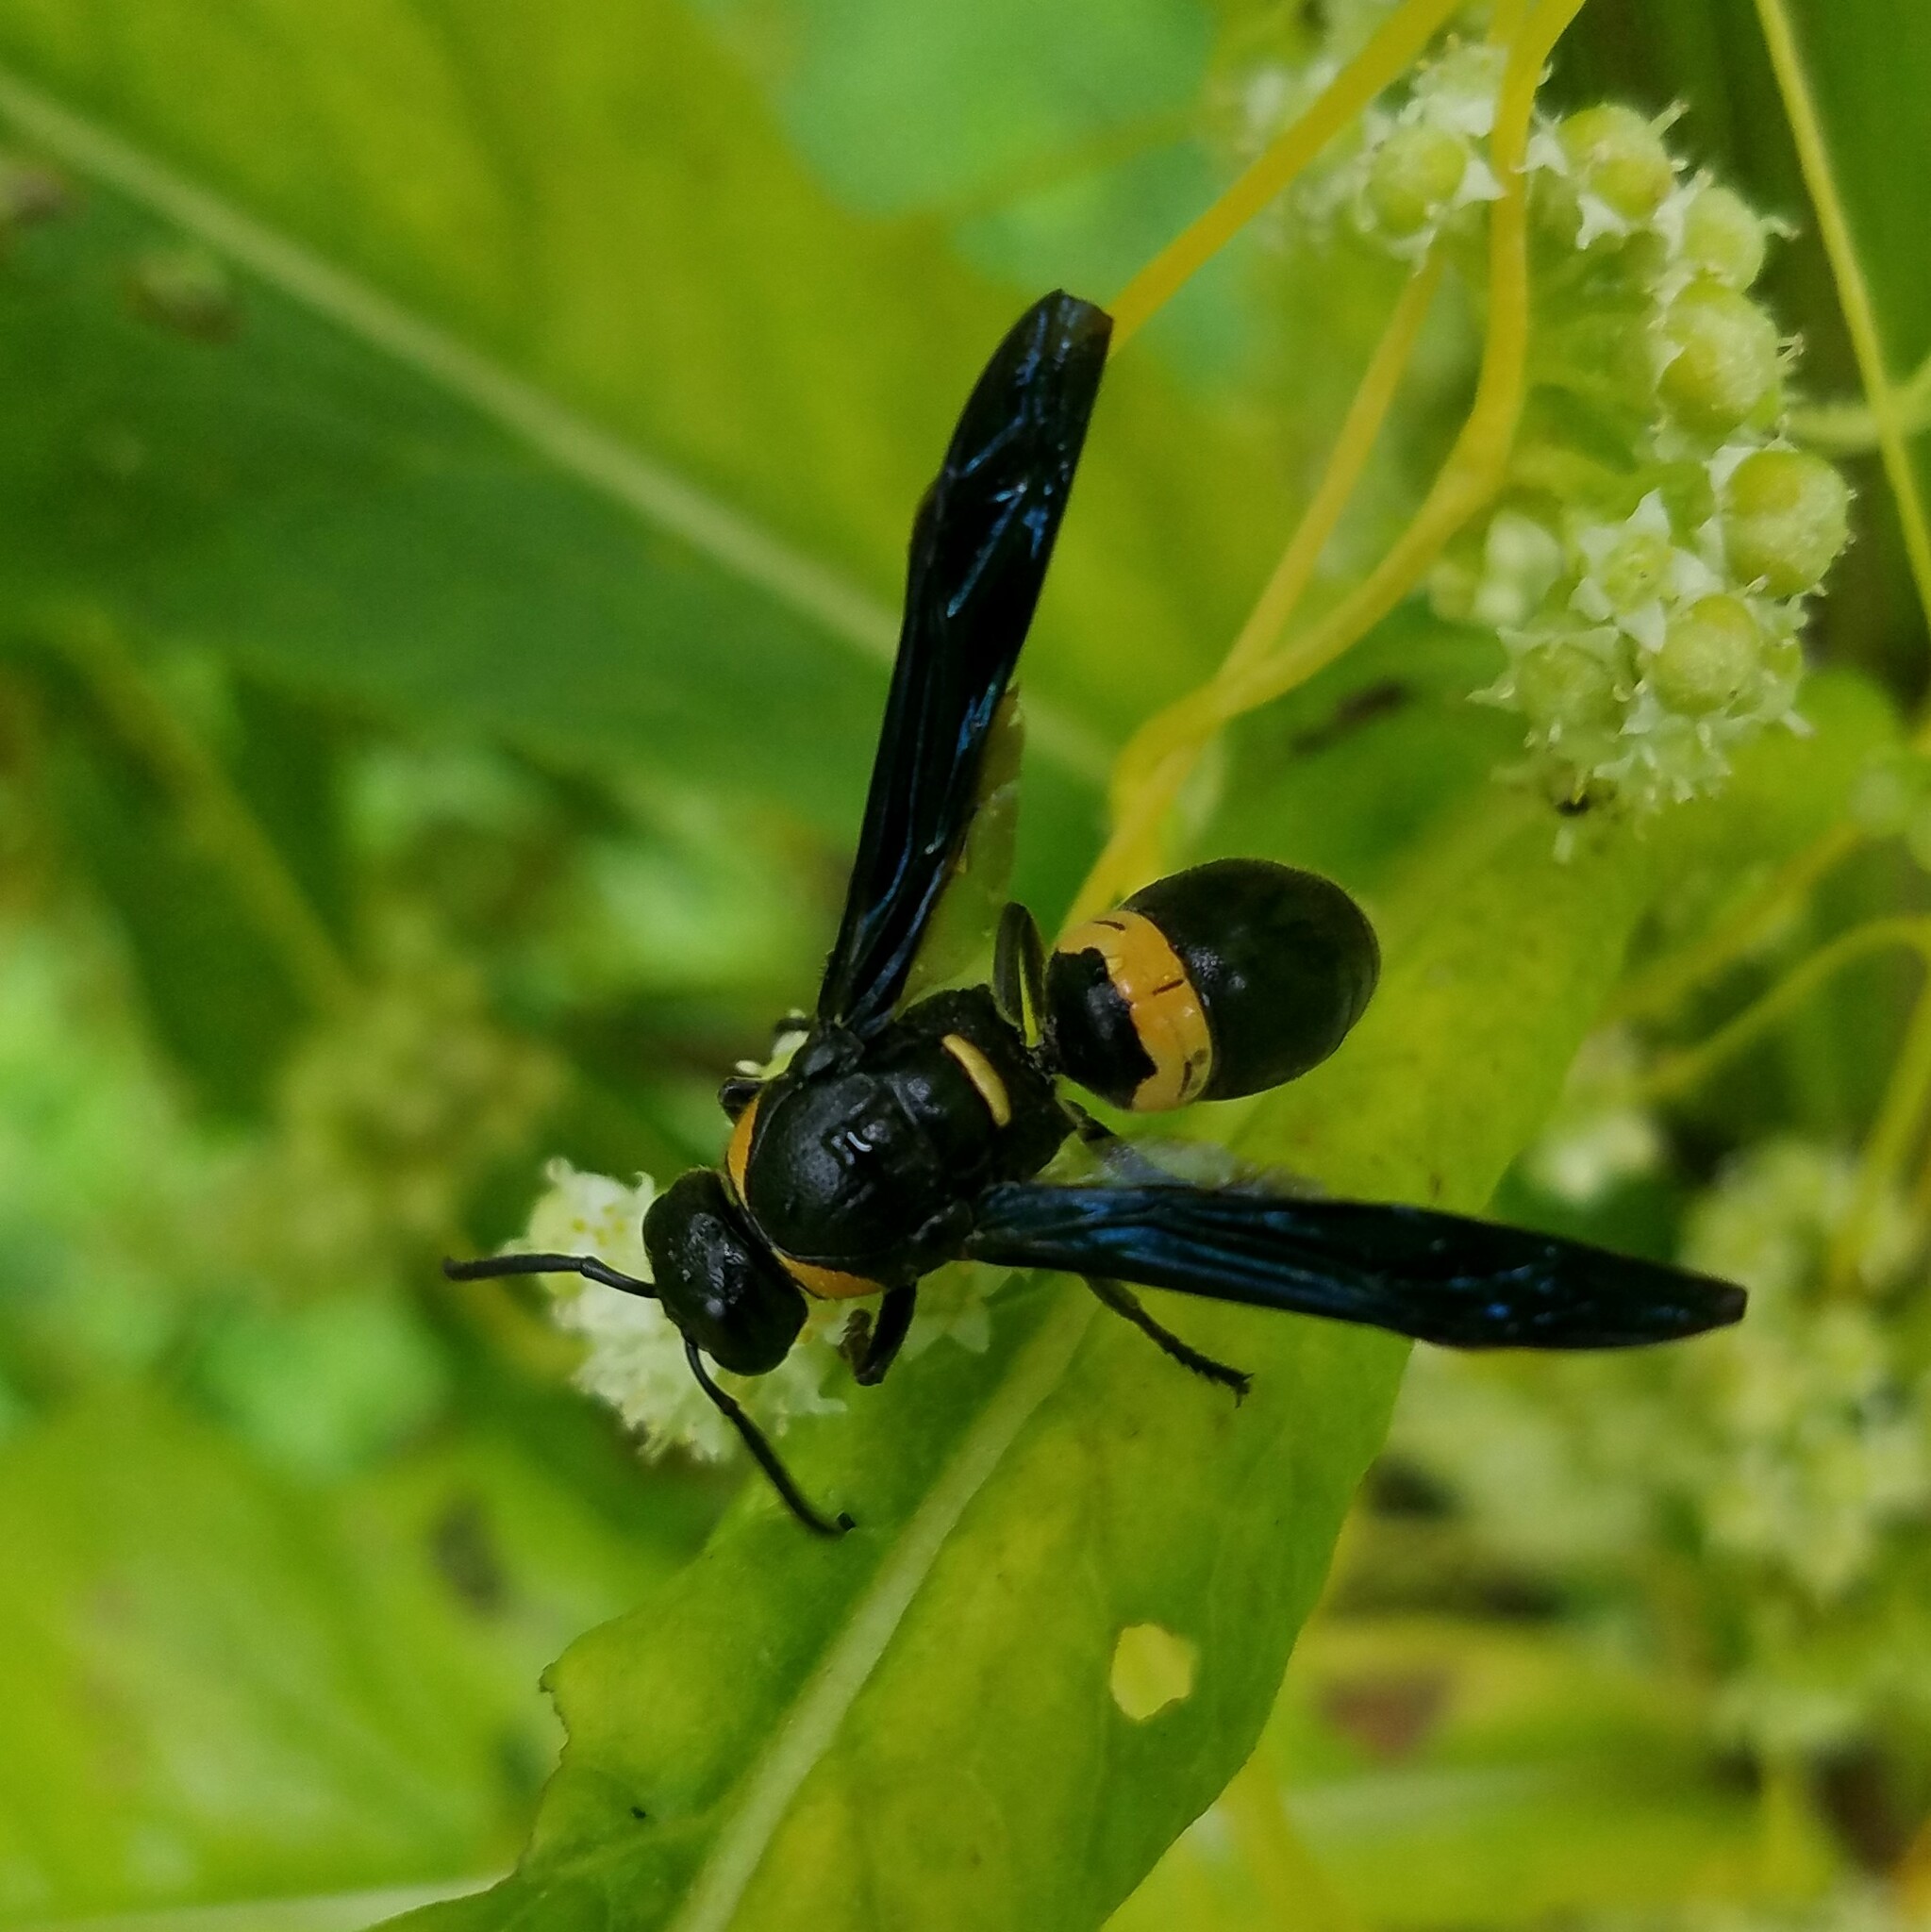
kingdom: Animalia
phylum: Arthropoda
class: Insecta
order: Hymenoptera
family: Eumenidae
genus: Monobia
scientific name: Monobia quadridens
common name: Four-toothed mason wasp
